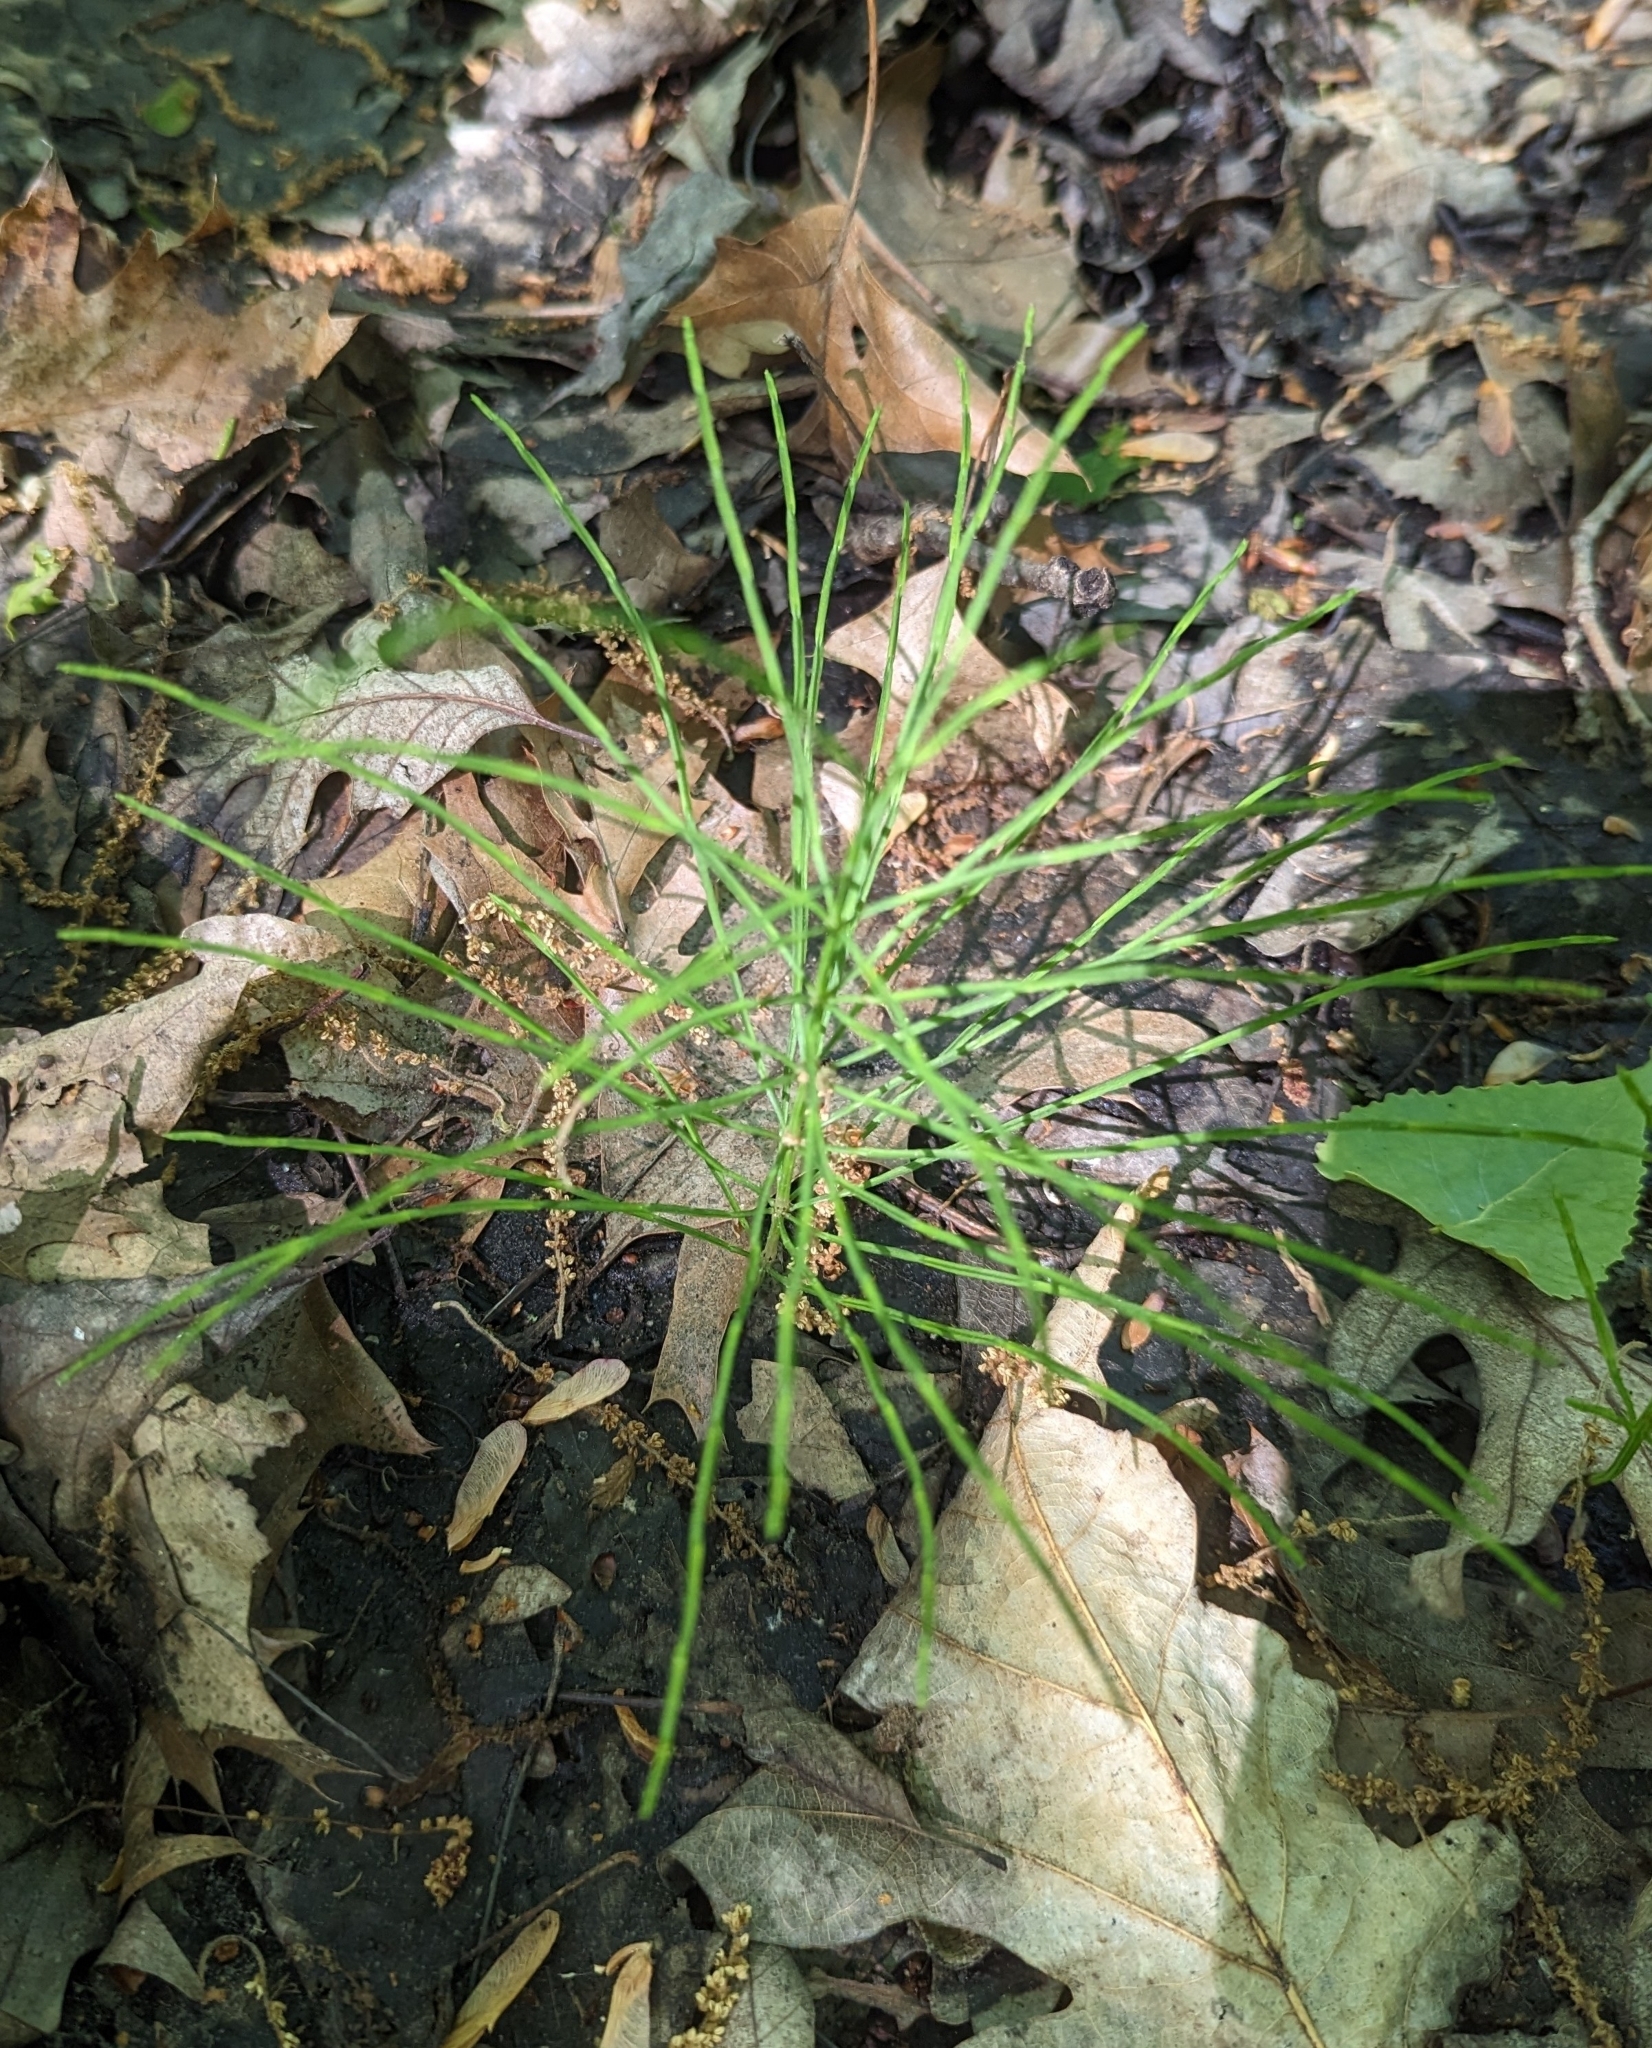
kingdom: Plantae
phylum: Tracheophyta
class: Polypodiopsida
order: Equisetales
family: Equisetaceae
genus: Equisetum
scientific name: Equisetum arvense
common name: Field horsetail
